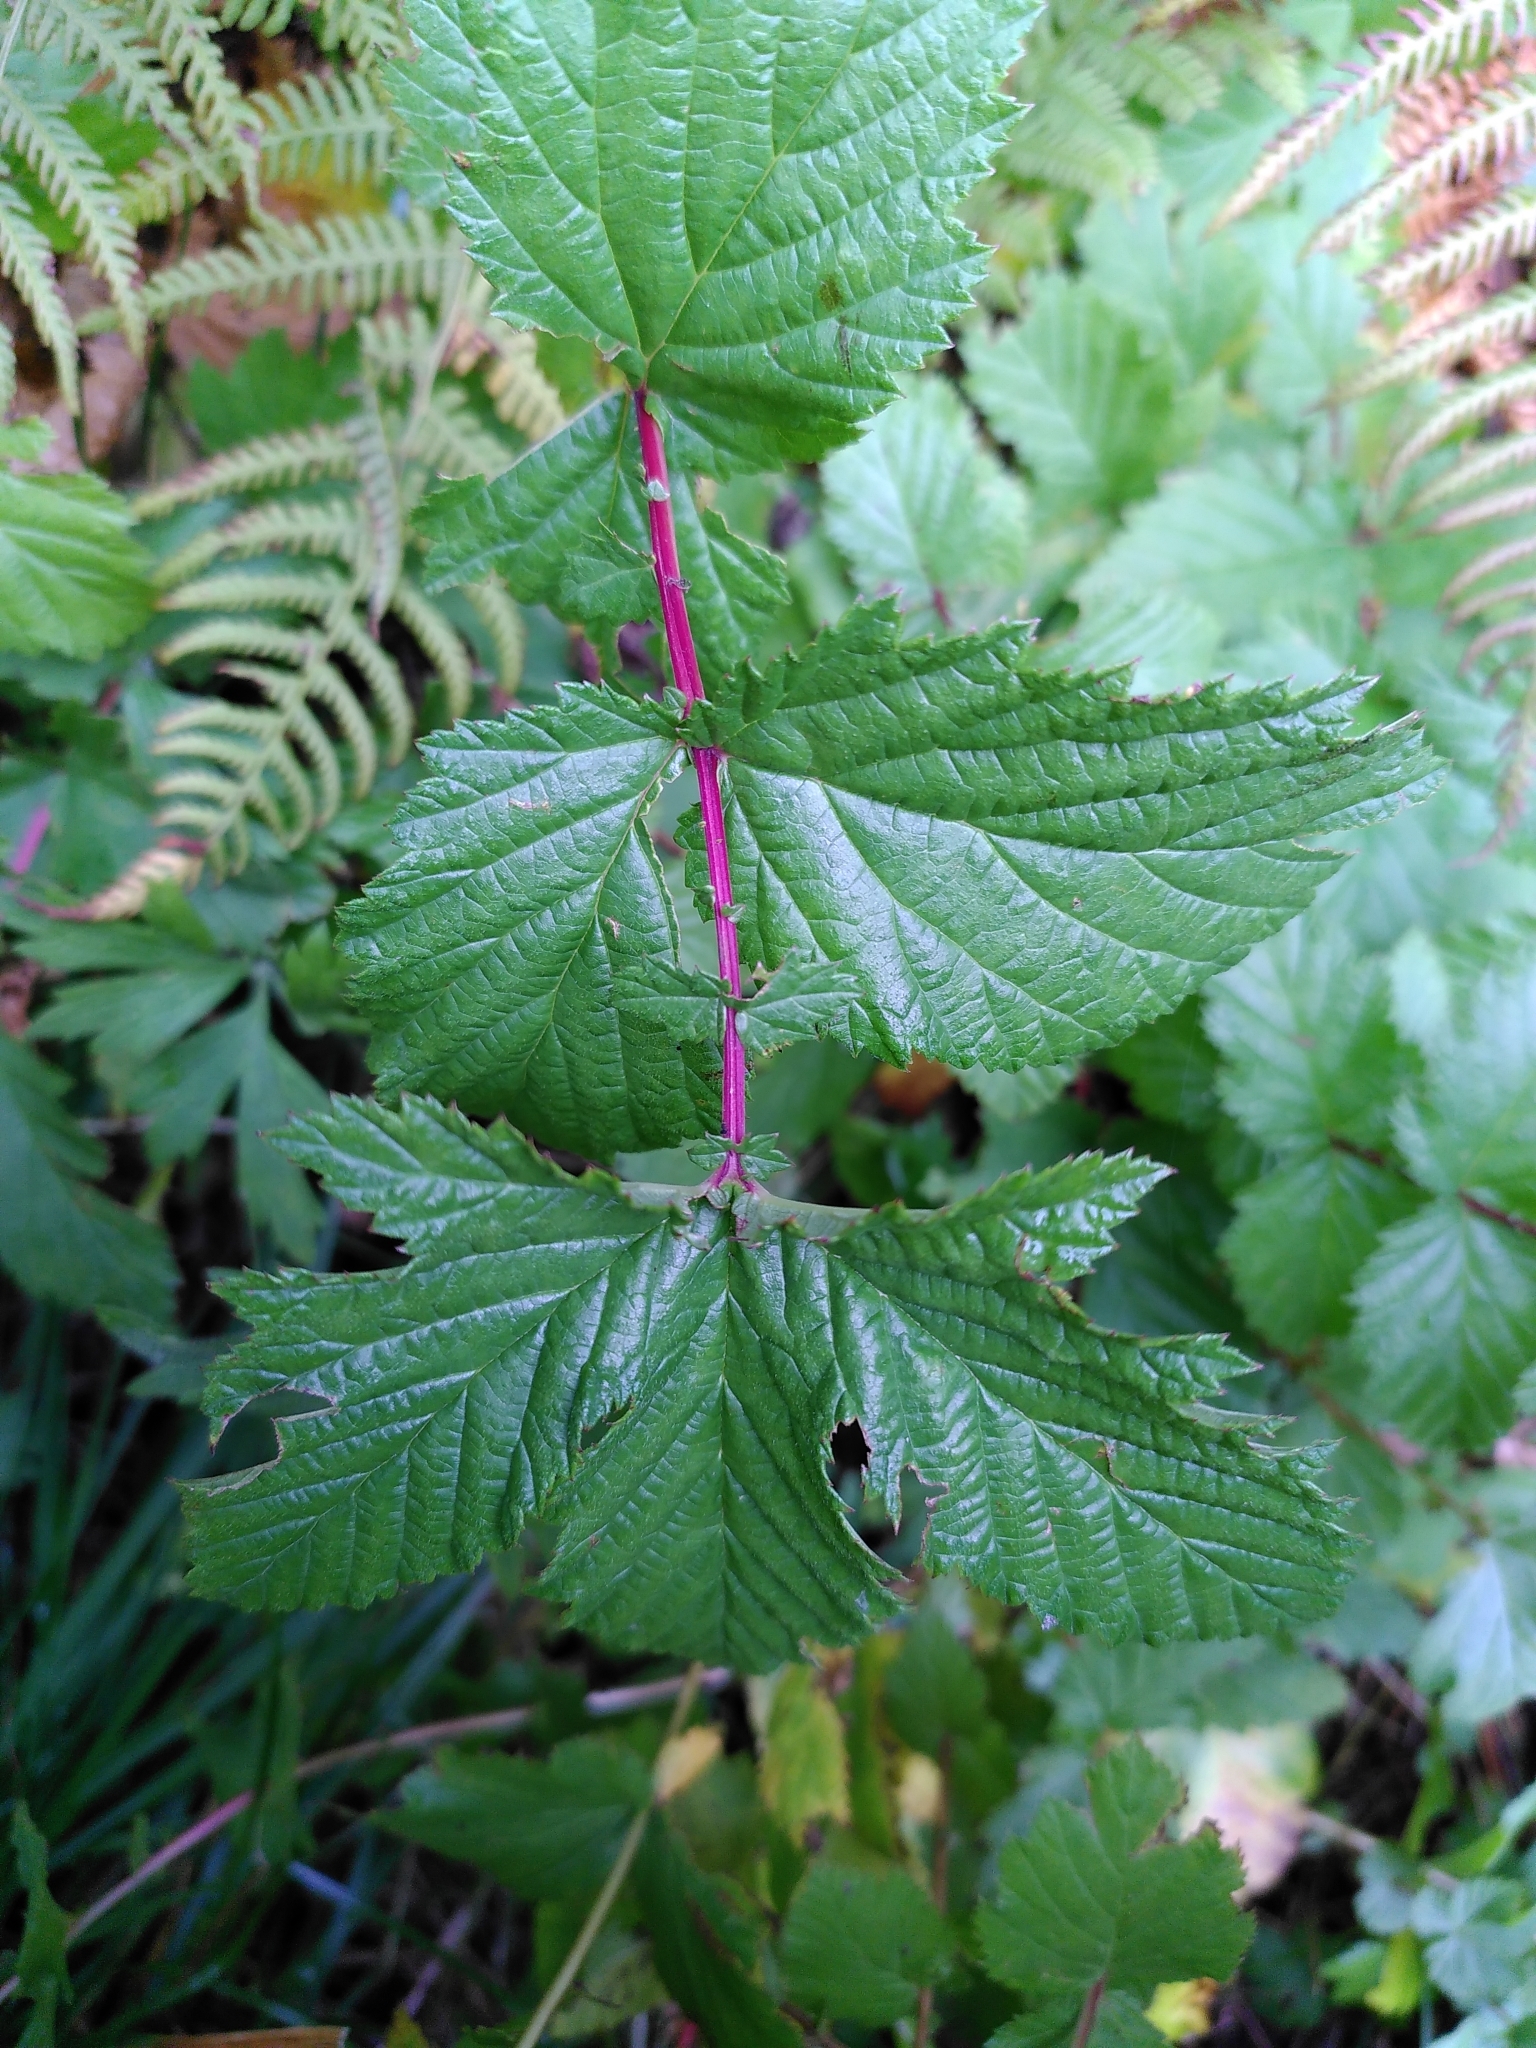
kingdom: Plantae
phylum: Tracheophyta
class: Magnoliopsida
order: Rosales
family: Rosaceae
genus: Filipendula
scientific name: Filipendula ulmaria
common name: Meadowsweet
